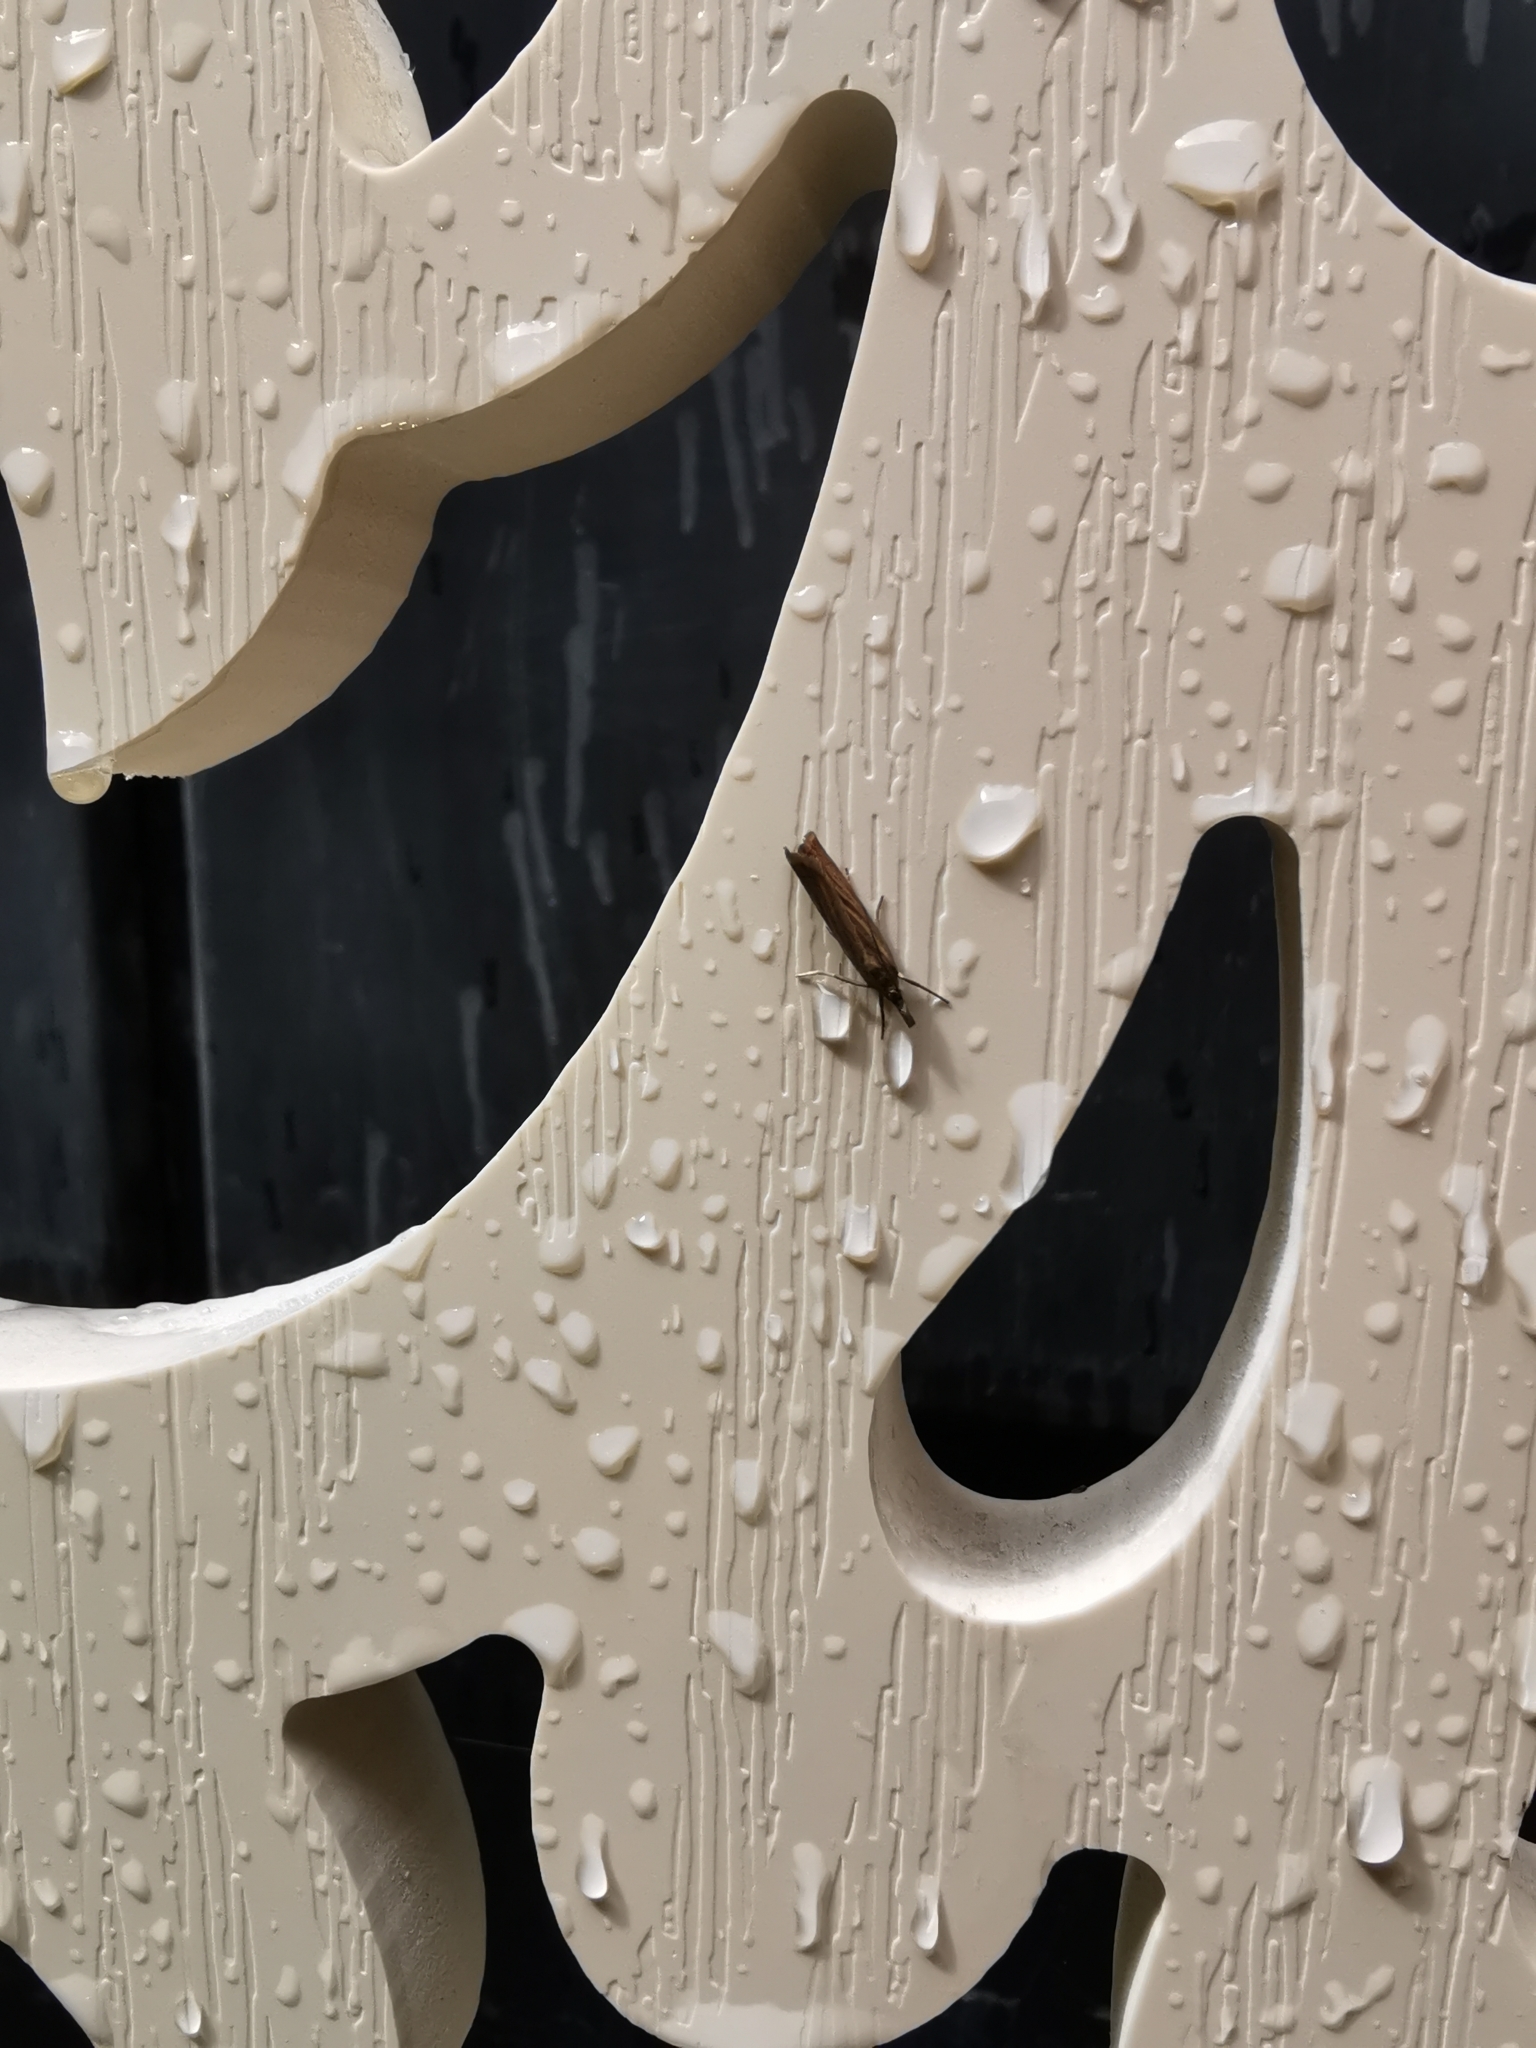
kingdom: Animalia
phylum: Arthropoda
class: Insecta
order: Lepidoptera
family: Crambidae
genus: Chrysoteuchia
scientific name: Chrysoteuchia culmella
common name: Garden grass-veneer
